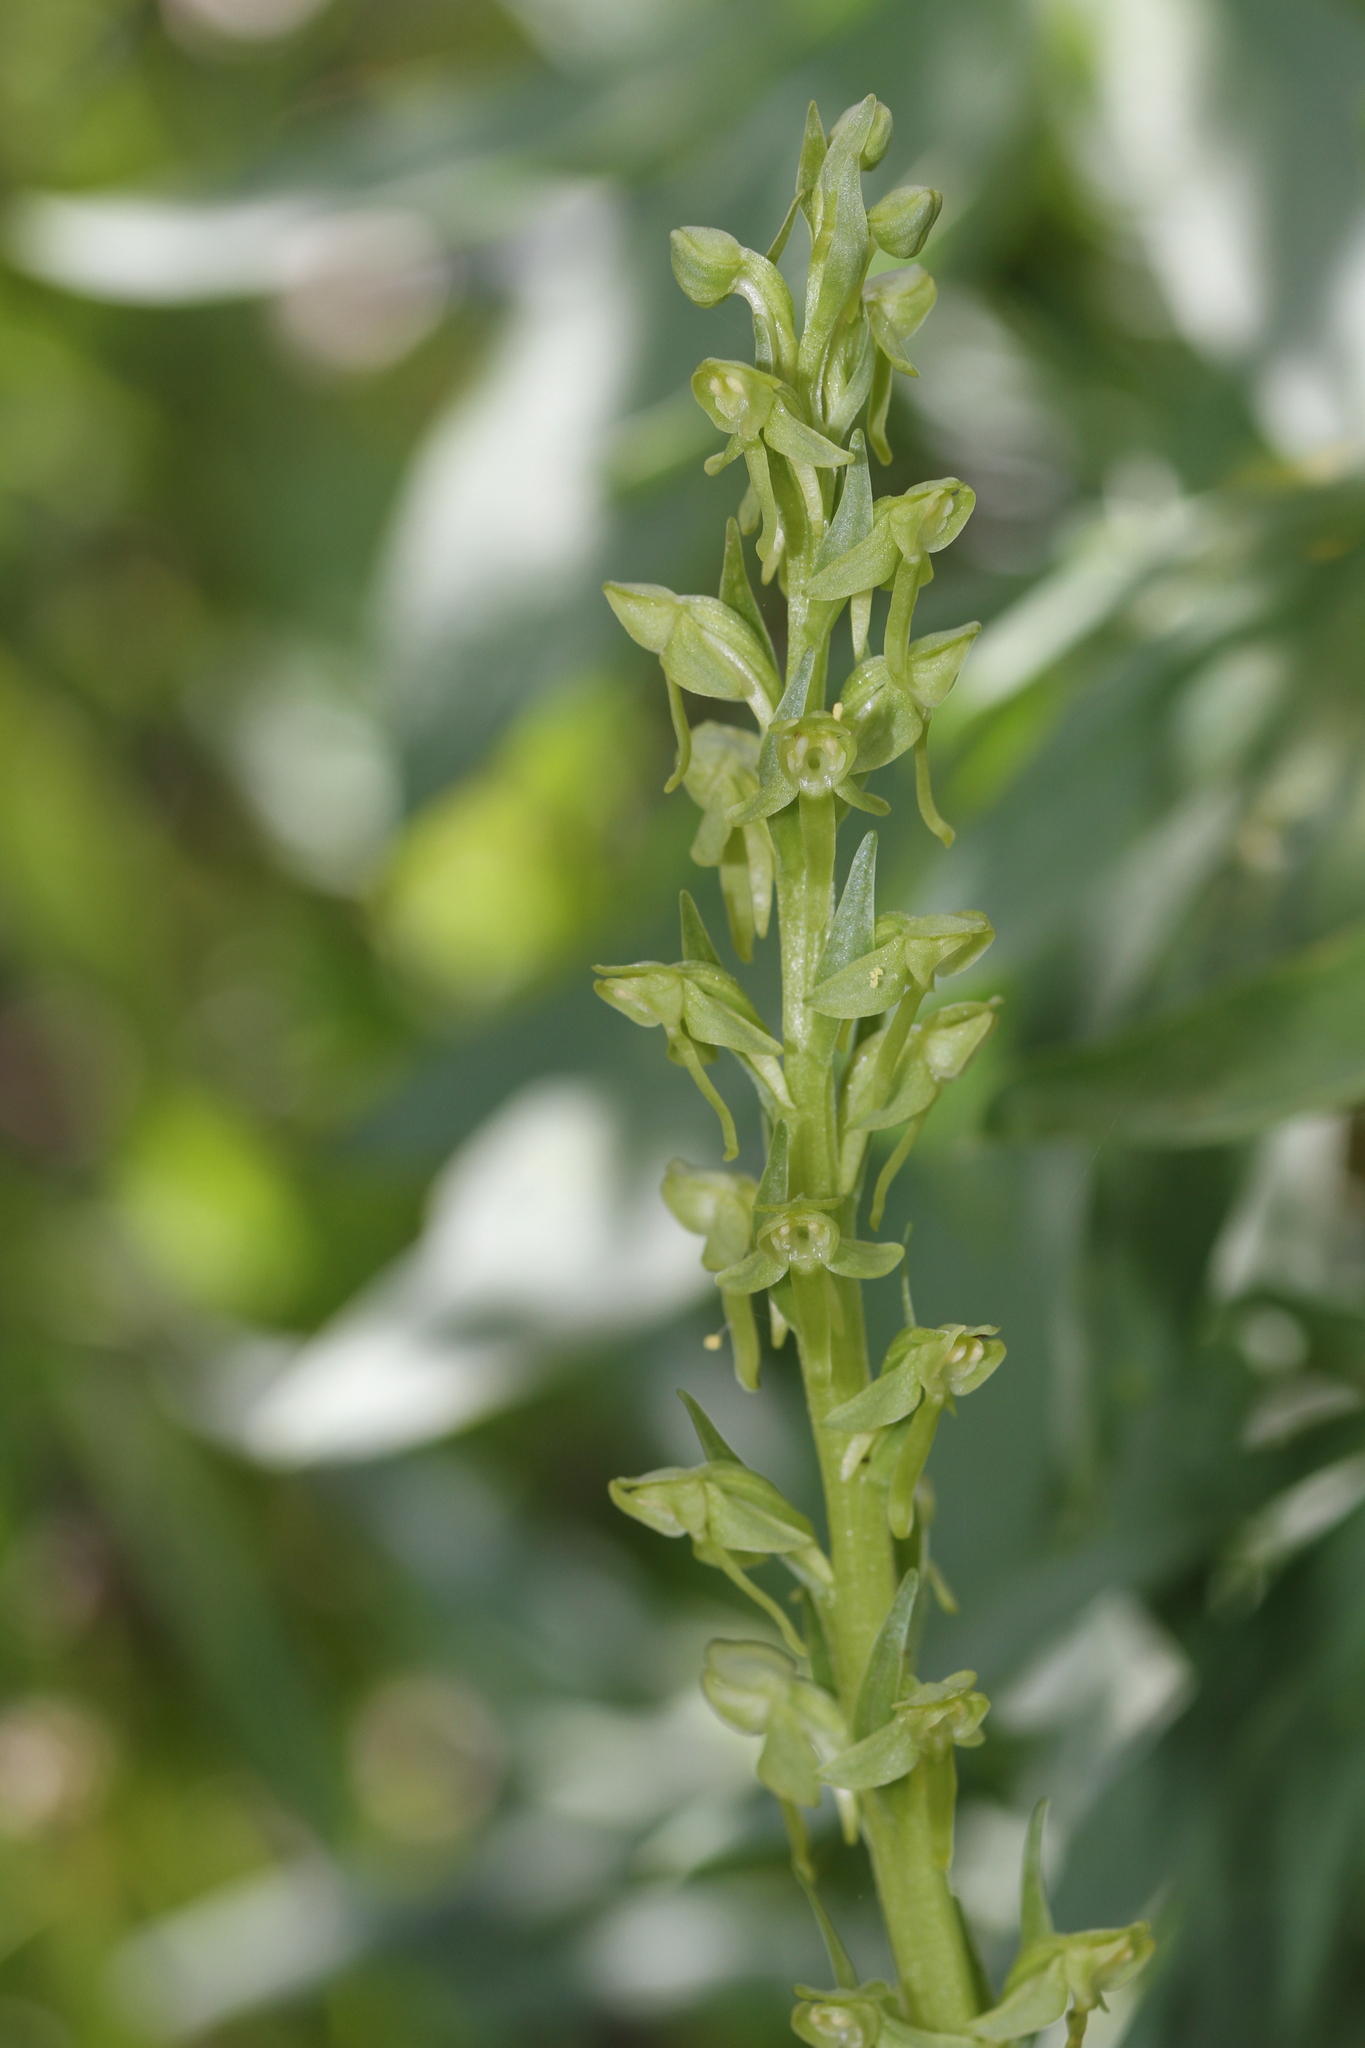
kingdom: Plantae
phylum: Tracheophyta
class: Liliopsida
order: Asparagales
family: Orchidaceae
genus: Platanthera
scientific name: Platanthera sparsiflora
